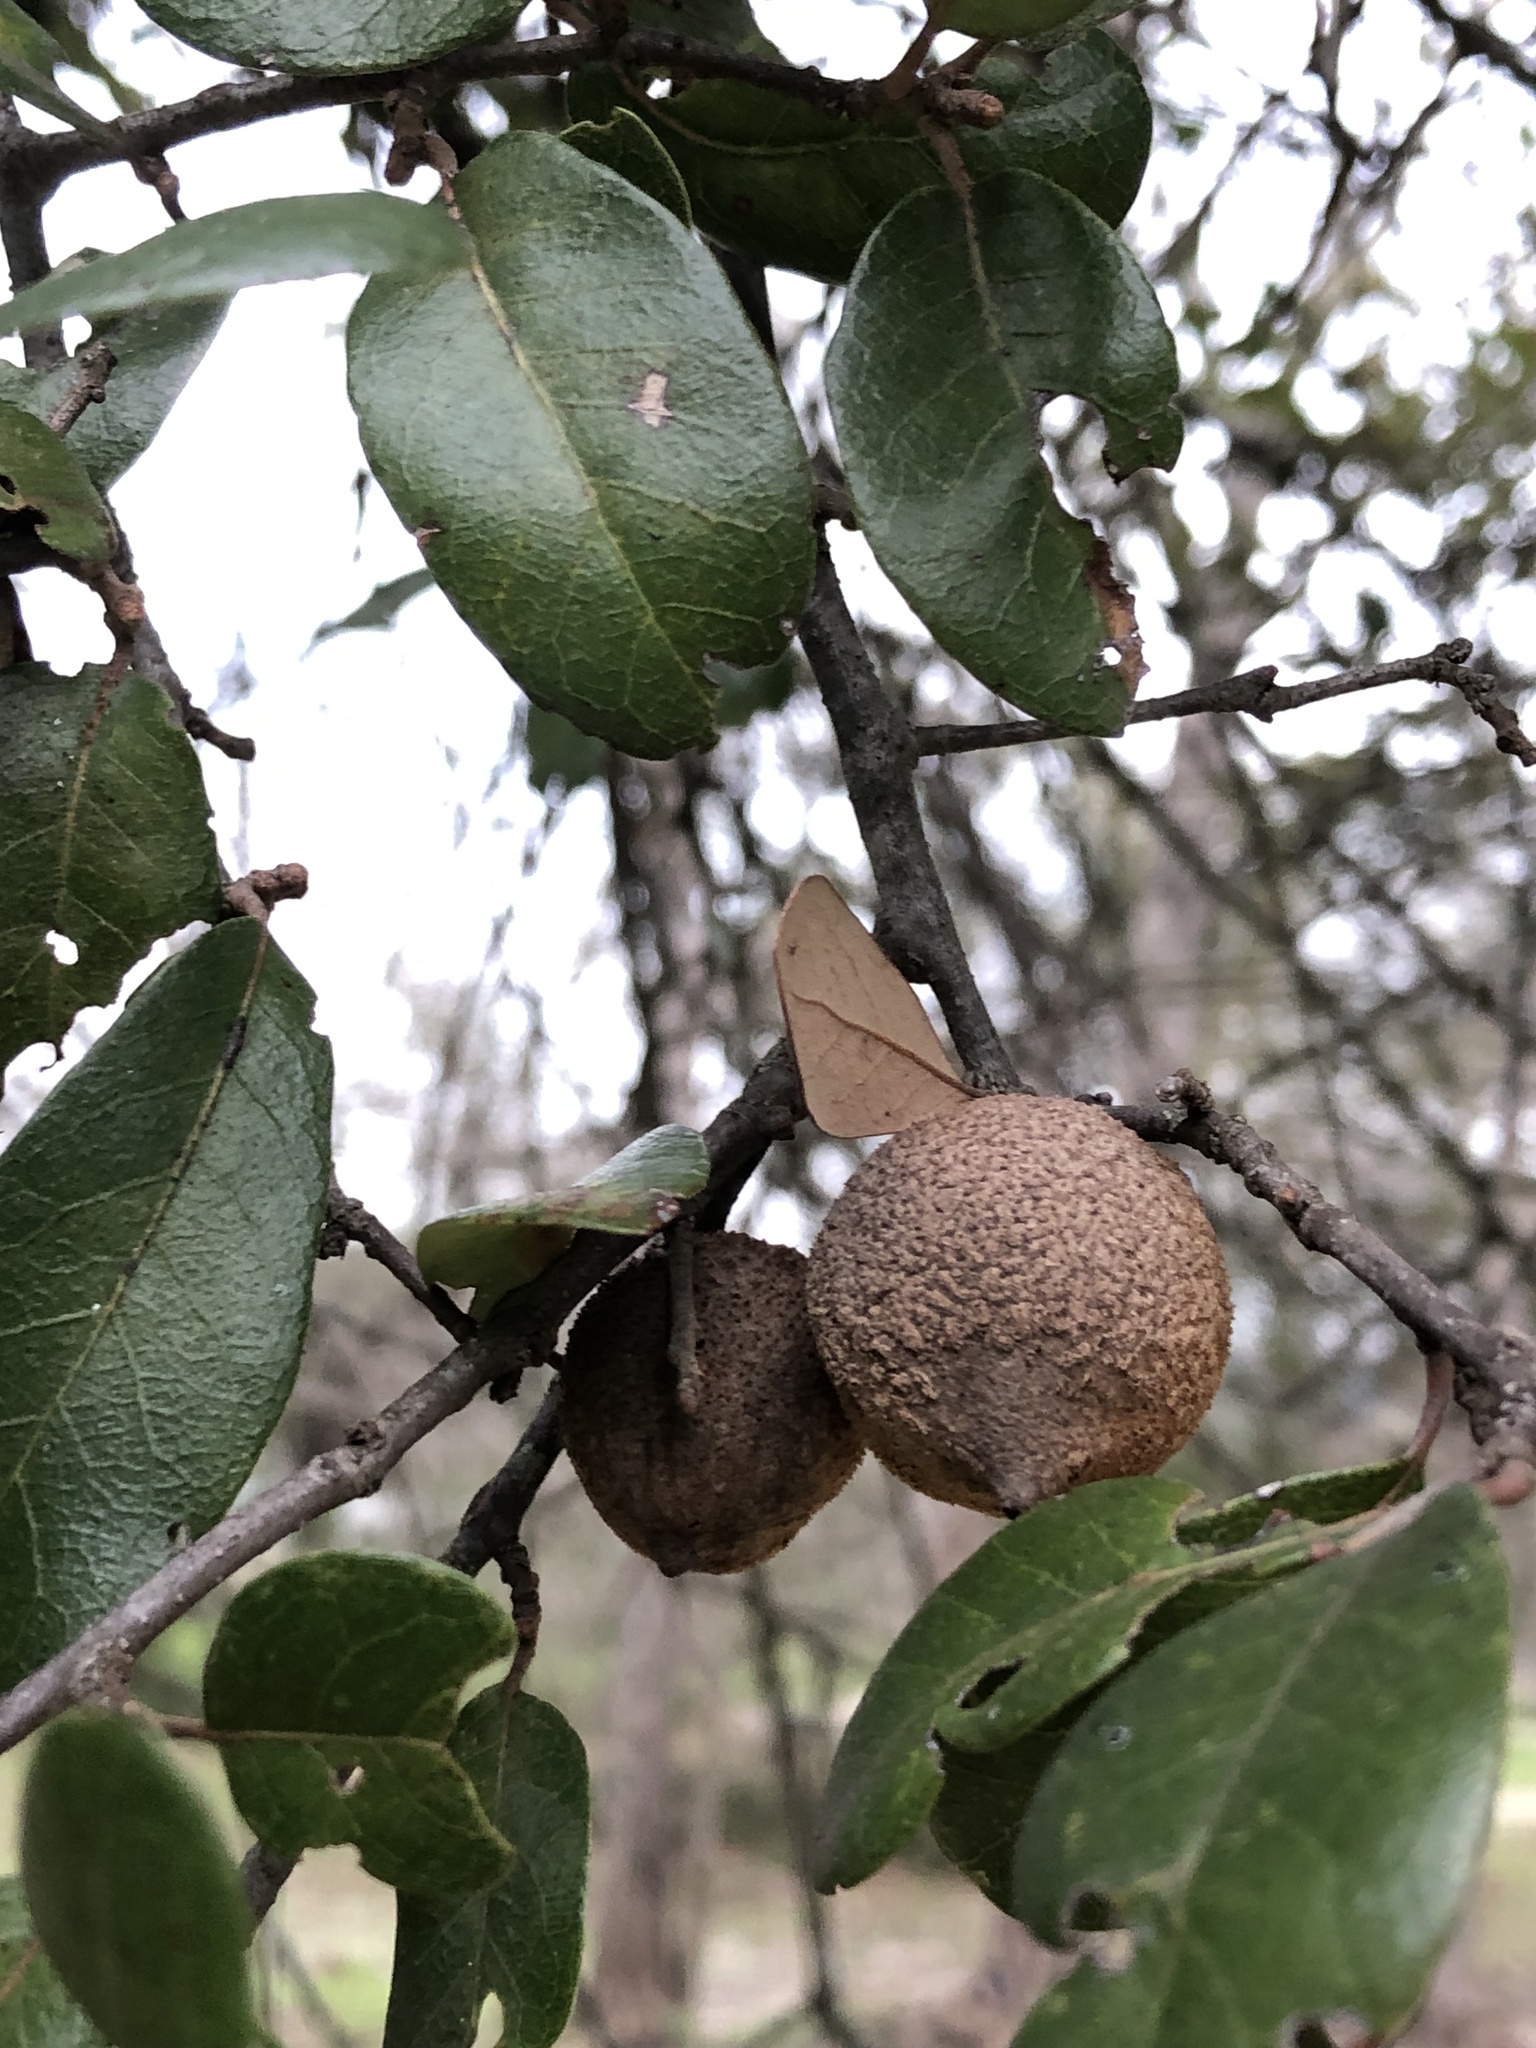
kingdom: Animalia
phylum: Arthropoda
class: Insecta
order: Hymenoptera
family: Cynipidae
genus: Disholcaspis
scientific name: Disholcaspis
